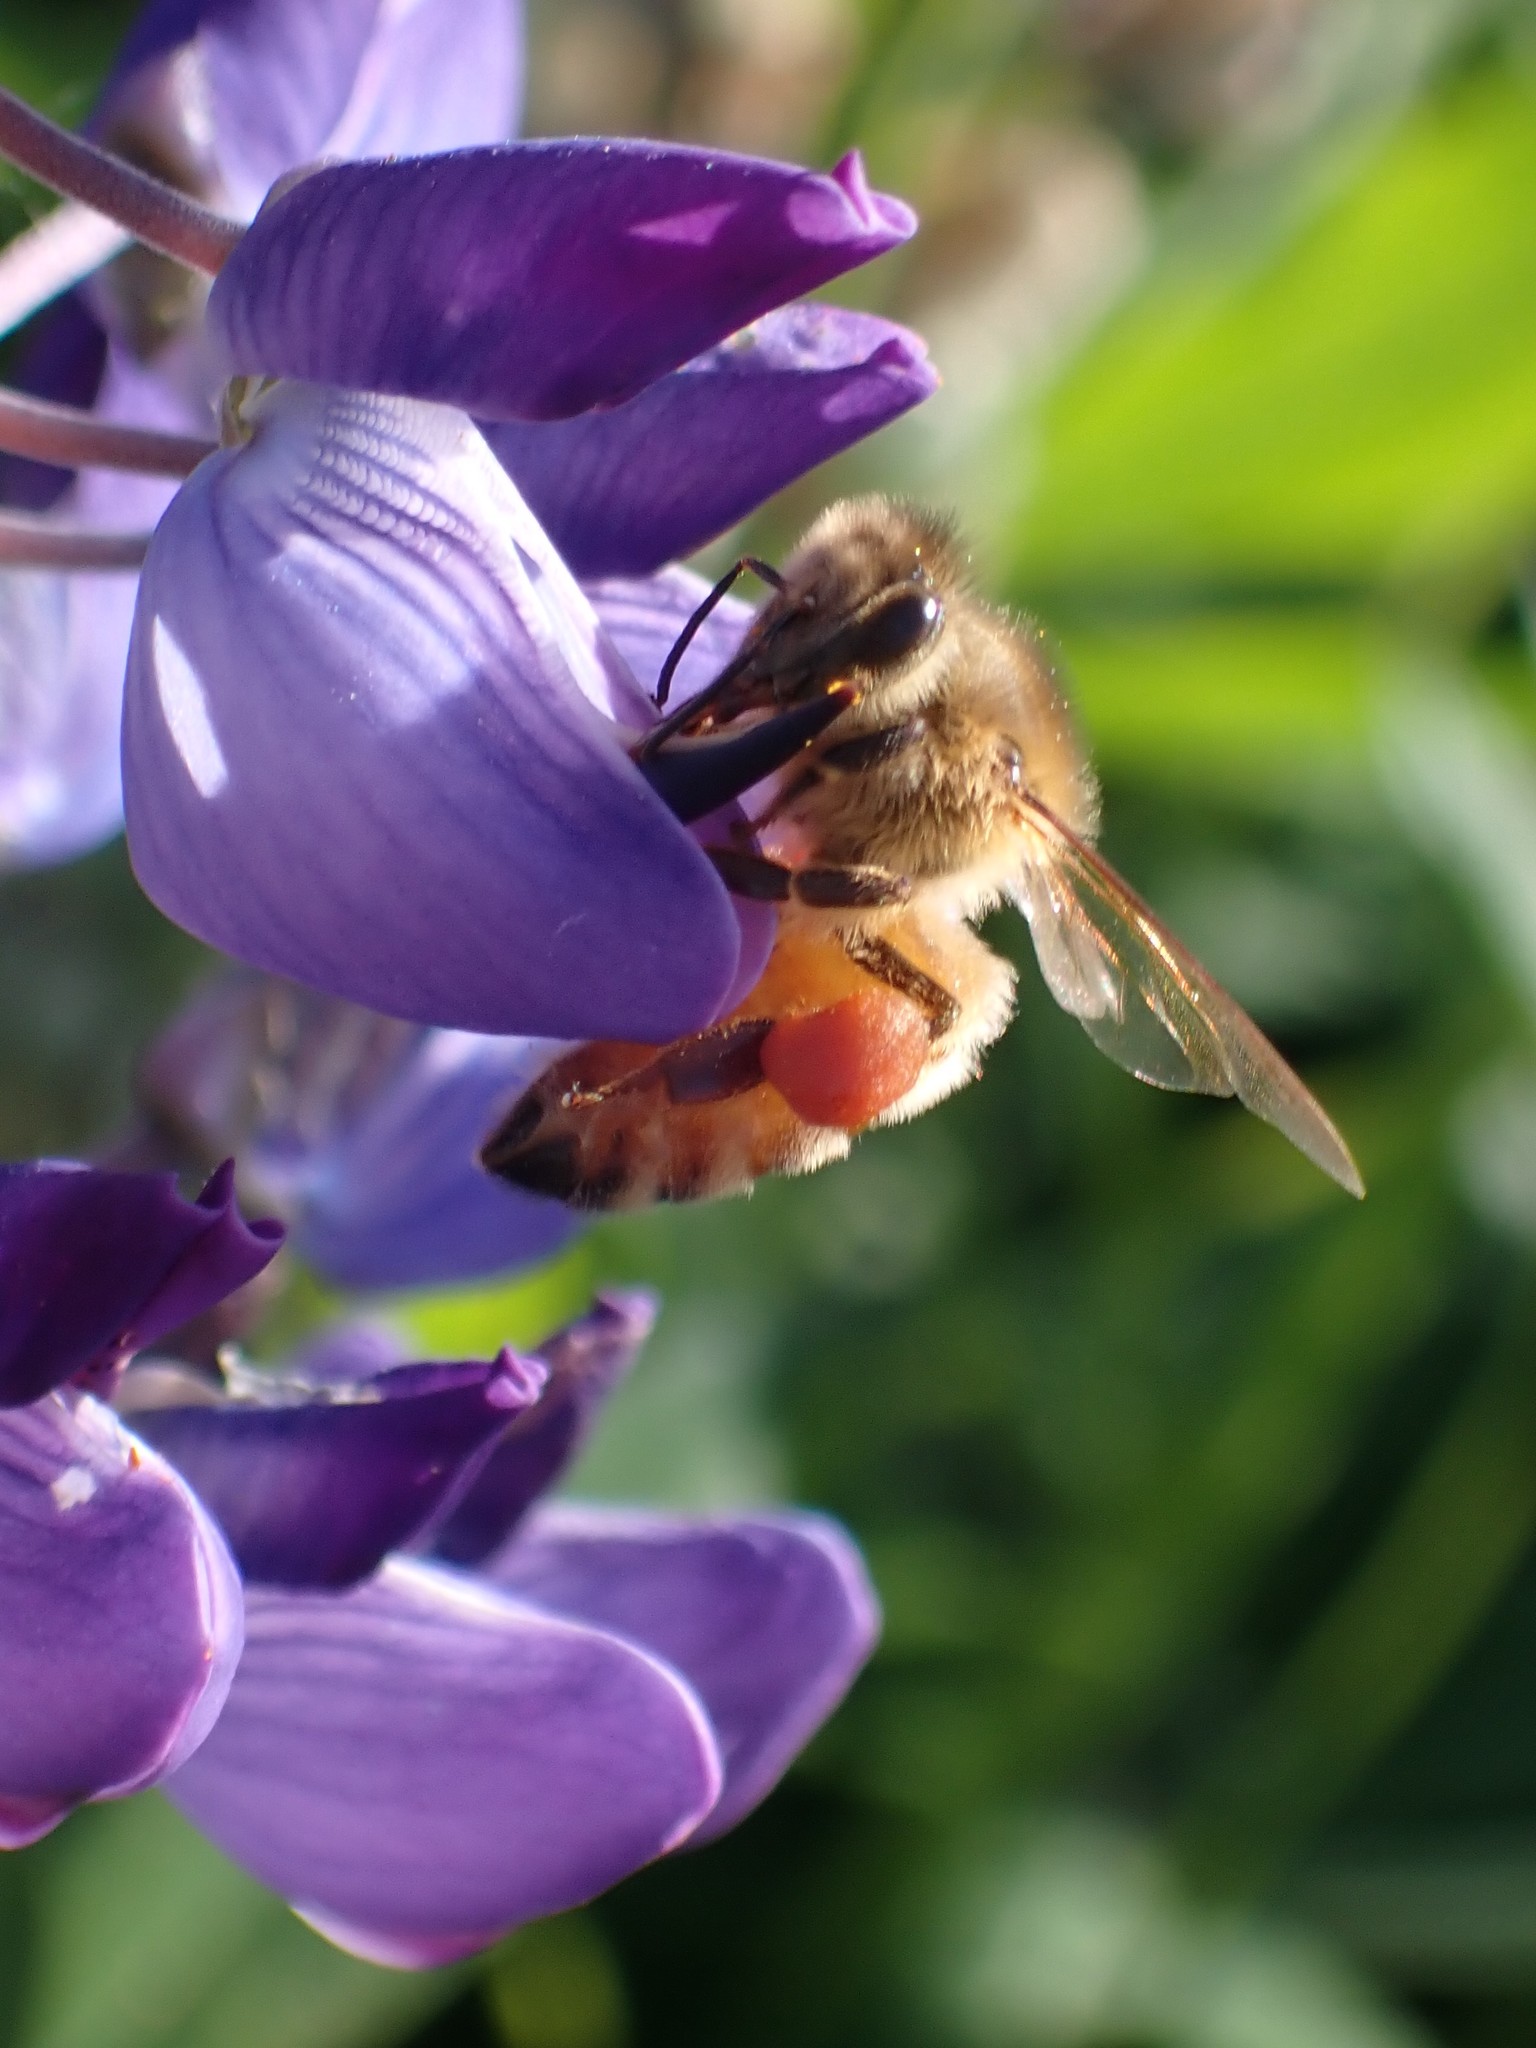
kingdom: Animalia
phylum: Arthropoda
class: Insecta
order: Hymenoptera
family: Apidae
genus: Apis
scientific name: Apis mellifera
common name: Honey bee
